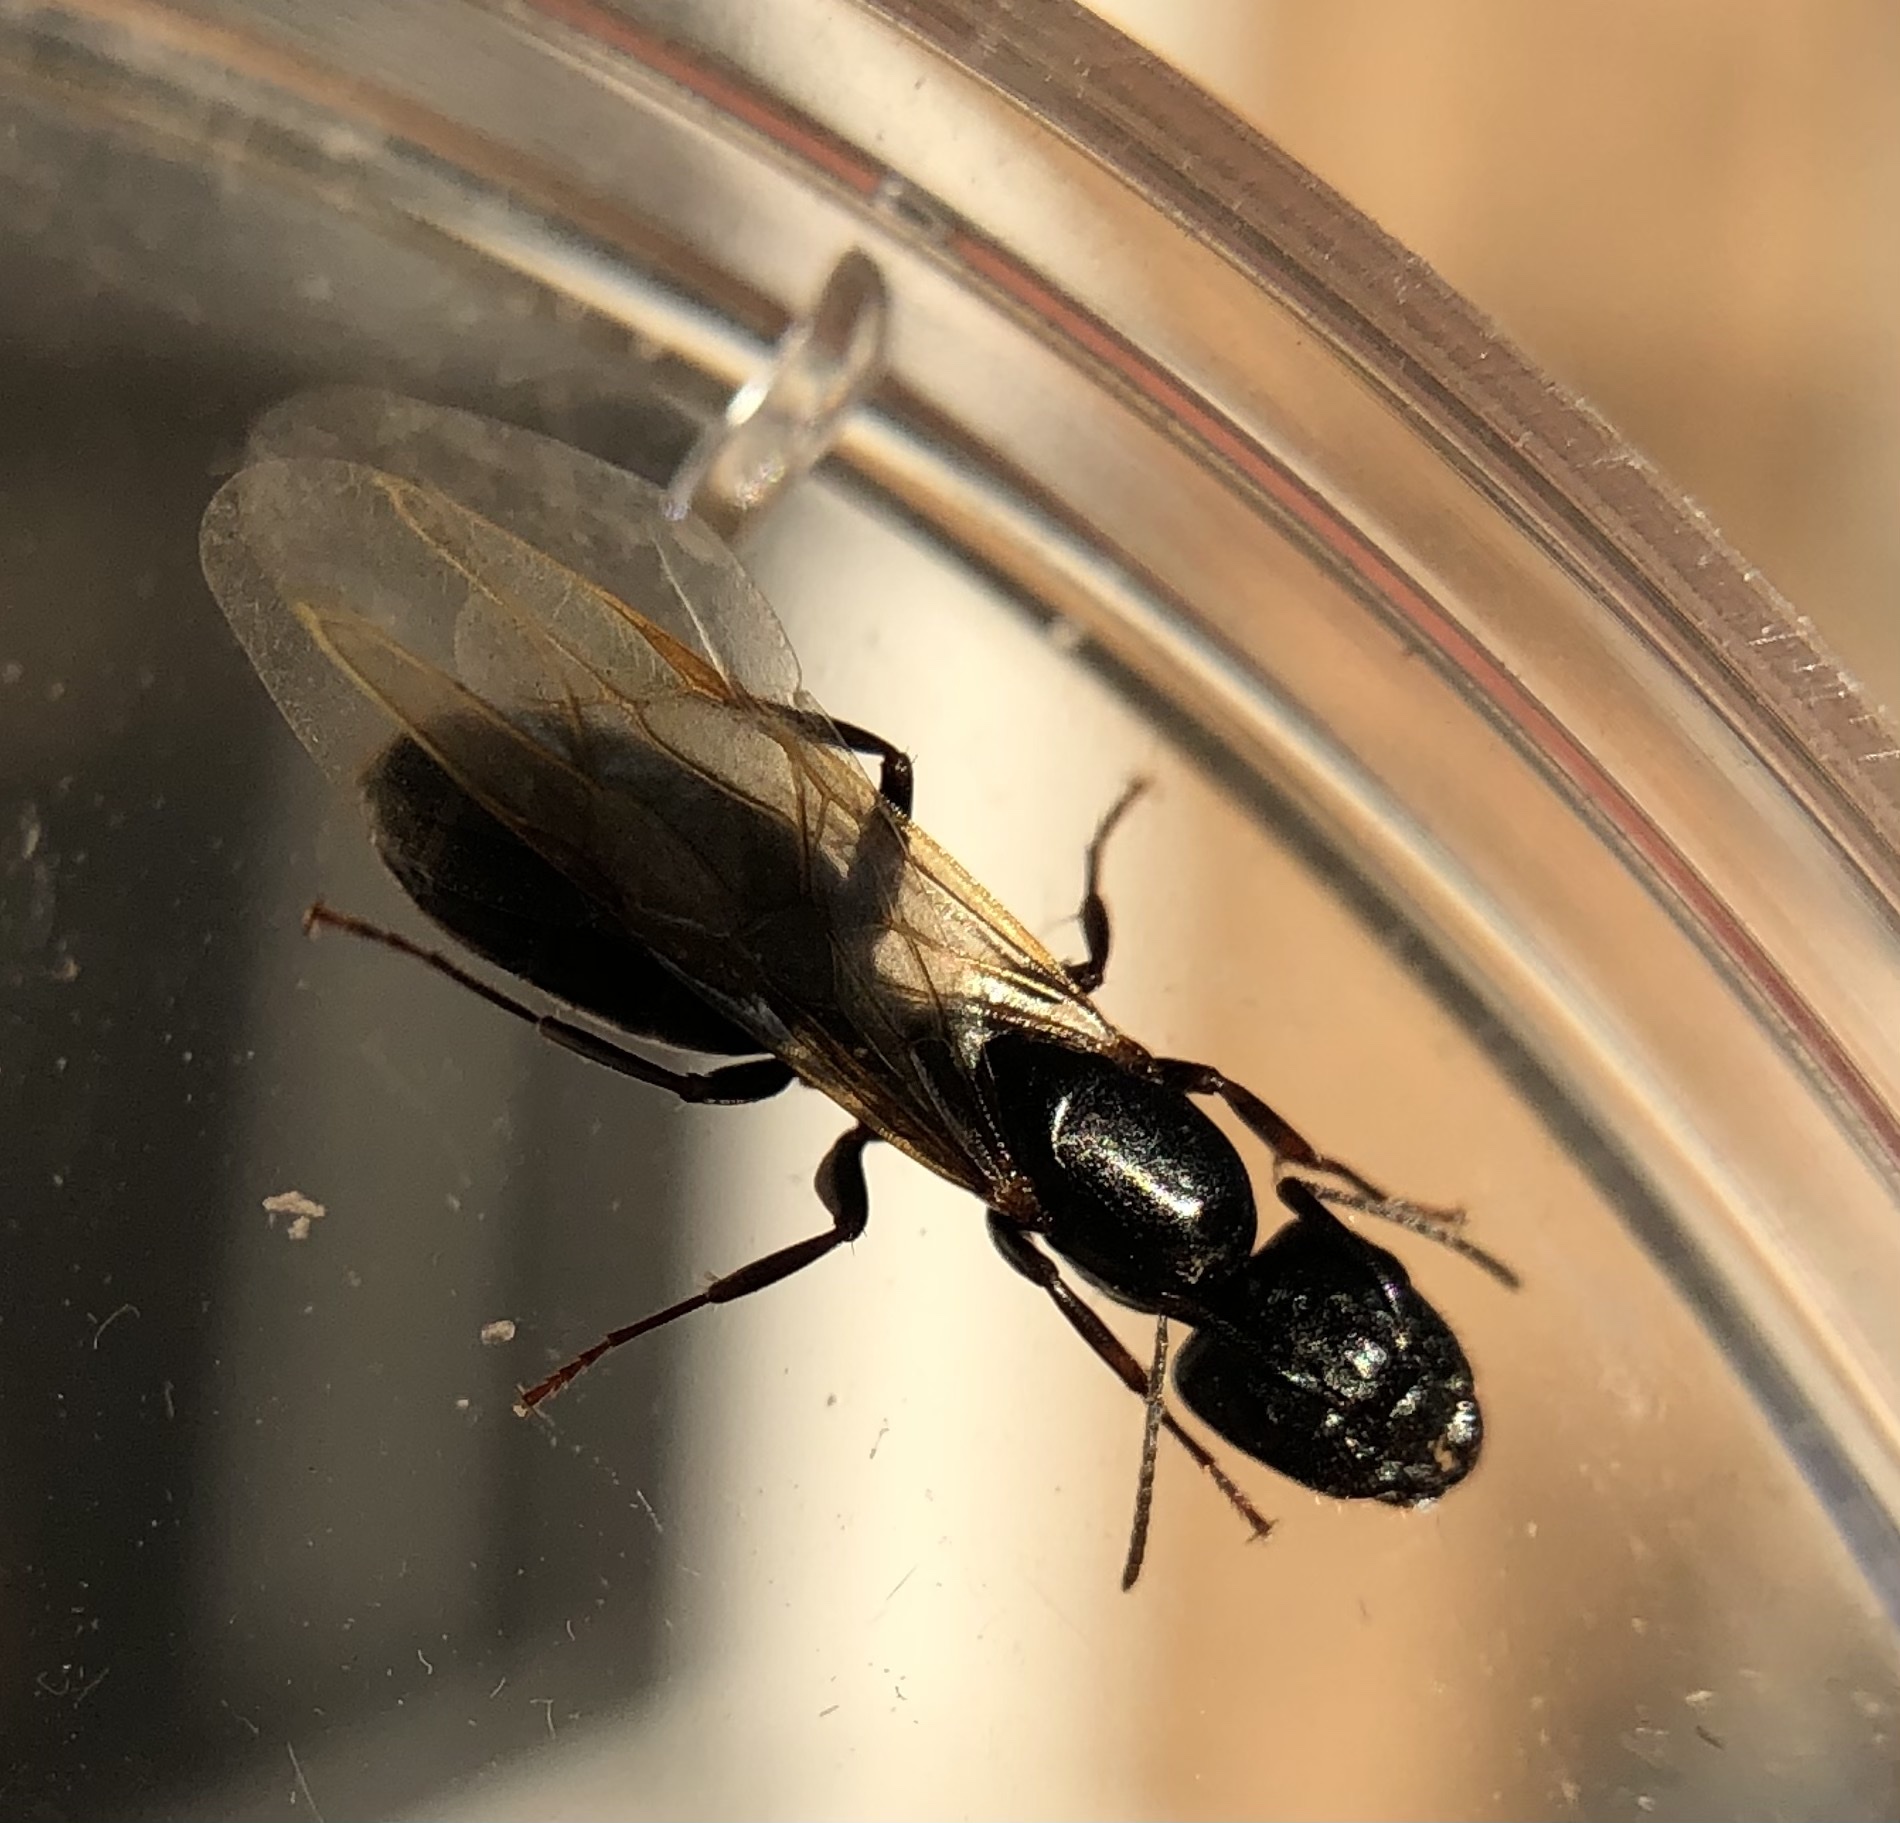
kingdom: Animalia
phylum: Arthropoda
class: Insecta
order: Hymenoptera
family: Formicidae
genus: Camponotus
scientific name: Camponotus caryae
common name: Walnut carpenter ant
